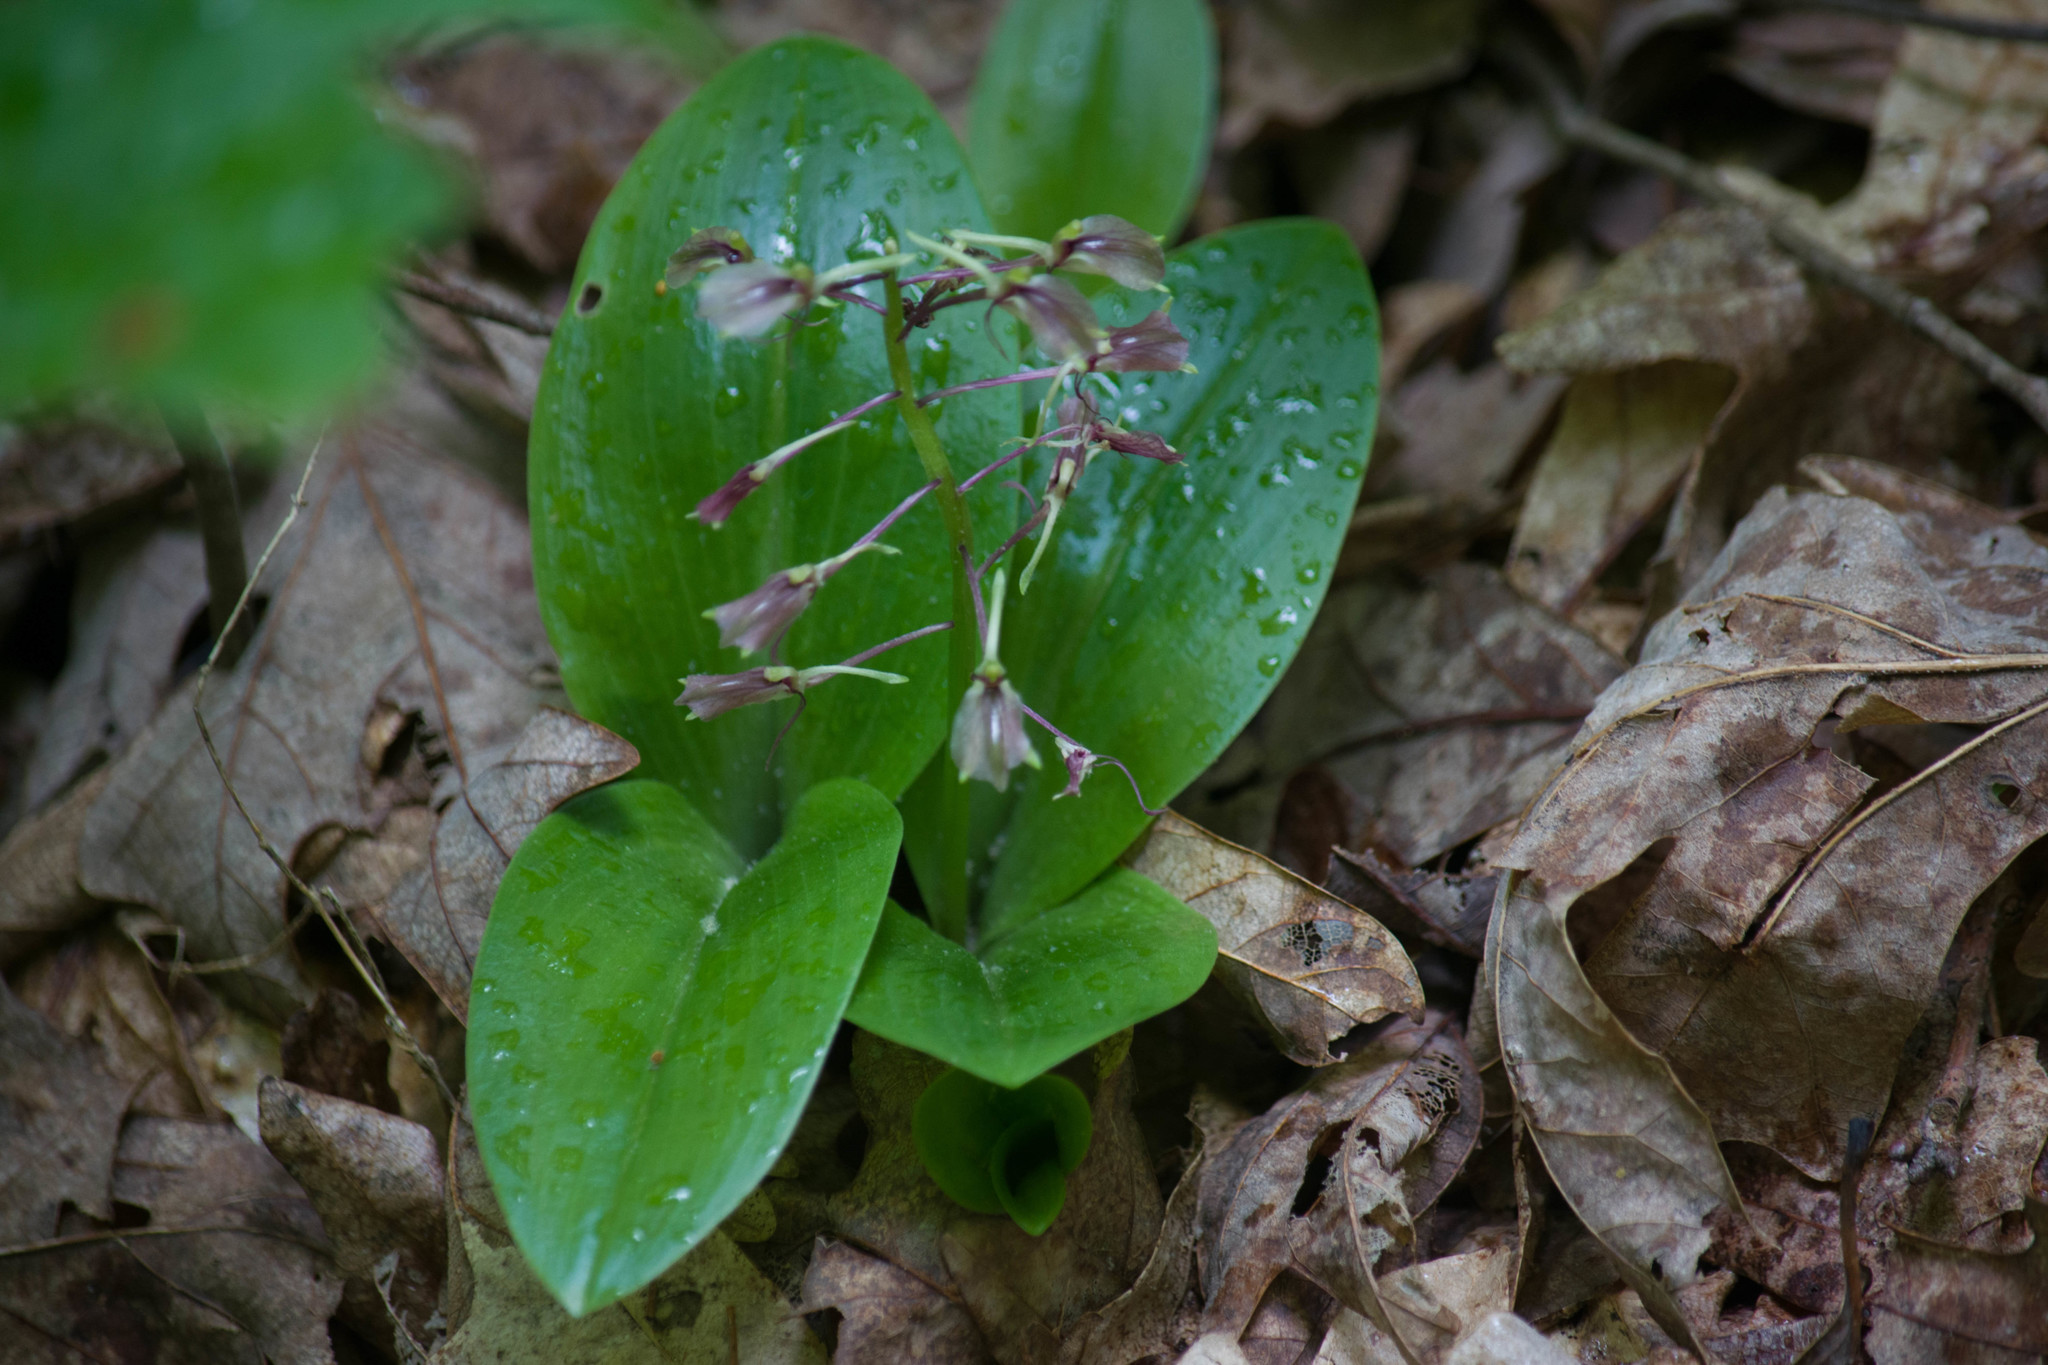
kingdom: Plantae
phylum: Tracheophyta
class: Liliopsida
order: Asparagales
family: Orchidaceae
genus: Liparis
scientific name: Liparis liliifolia
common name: Brown wide-lip orchid
